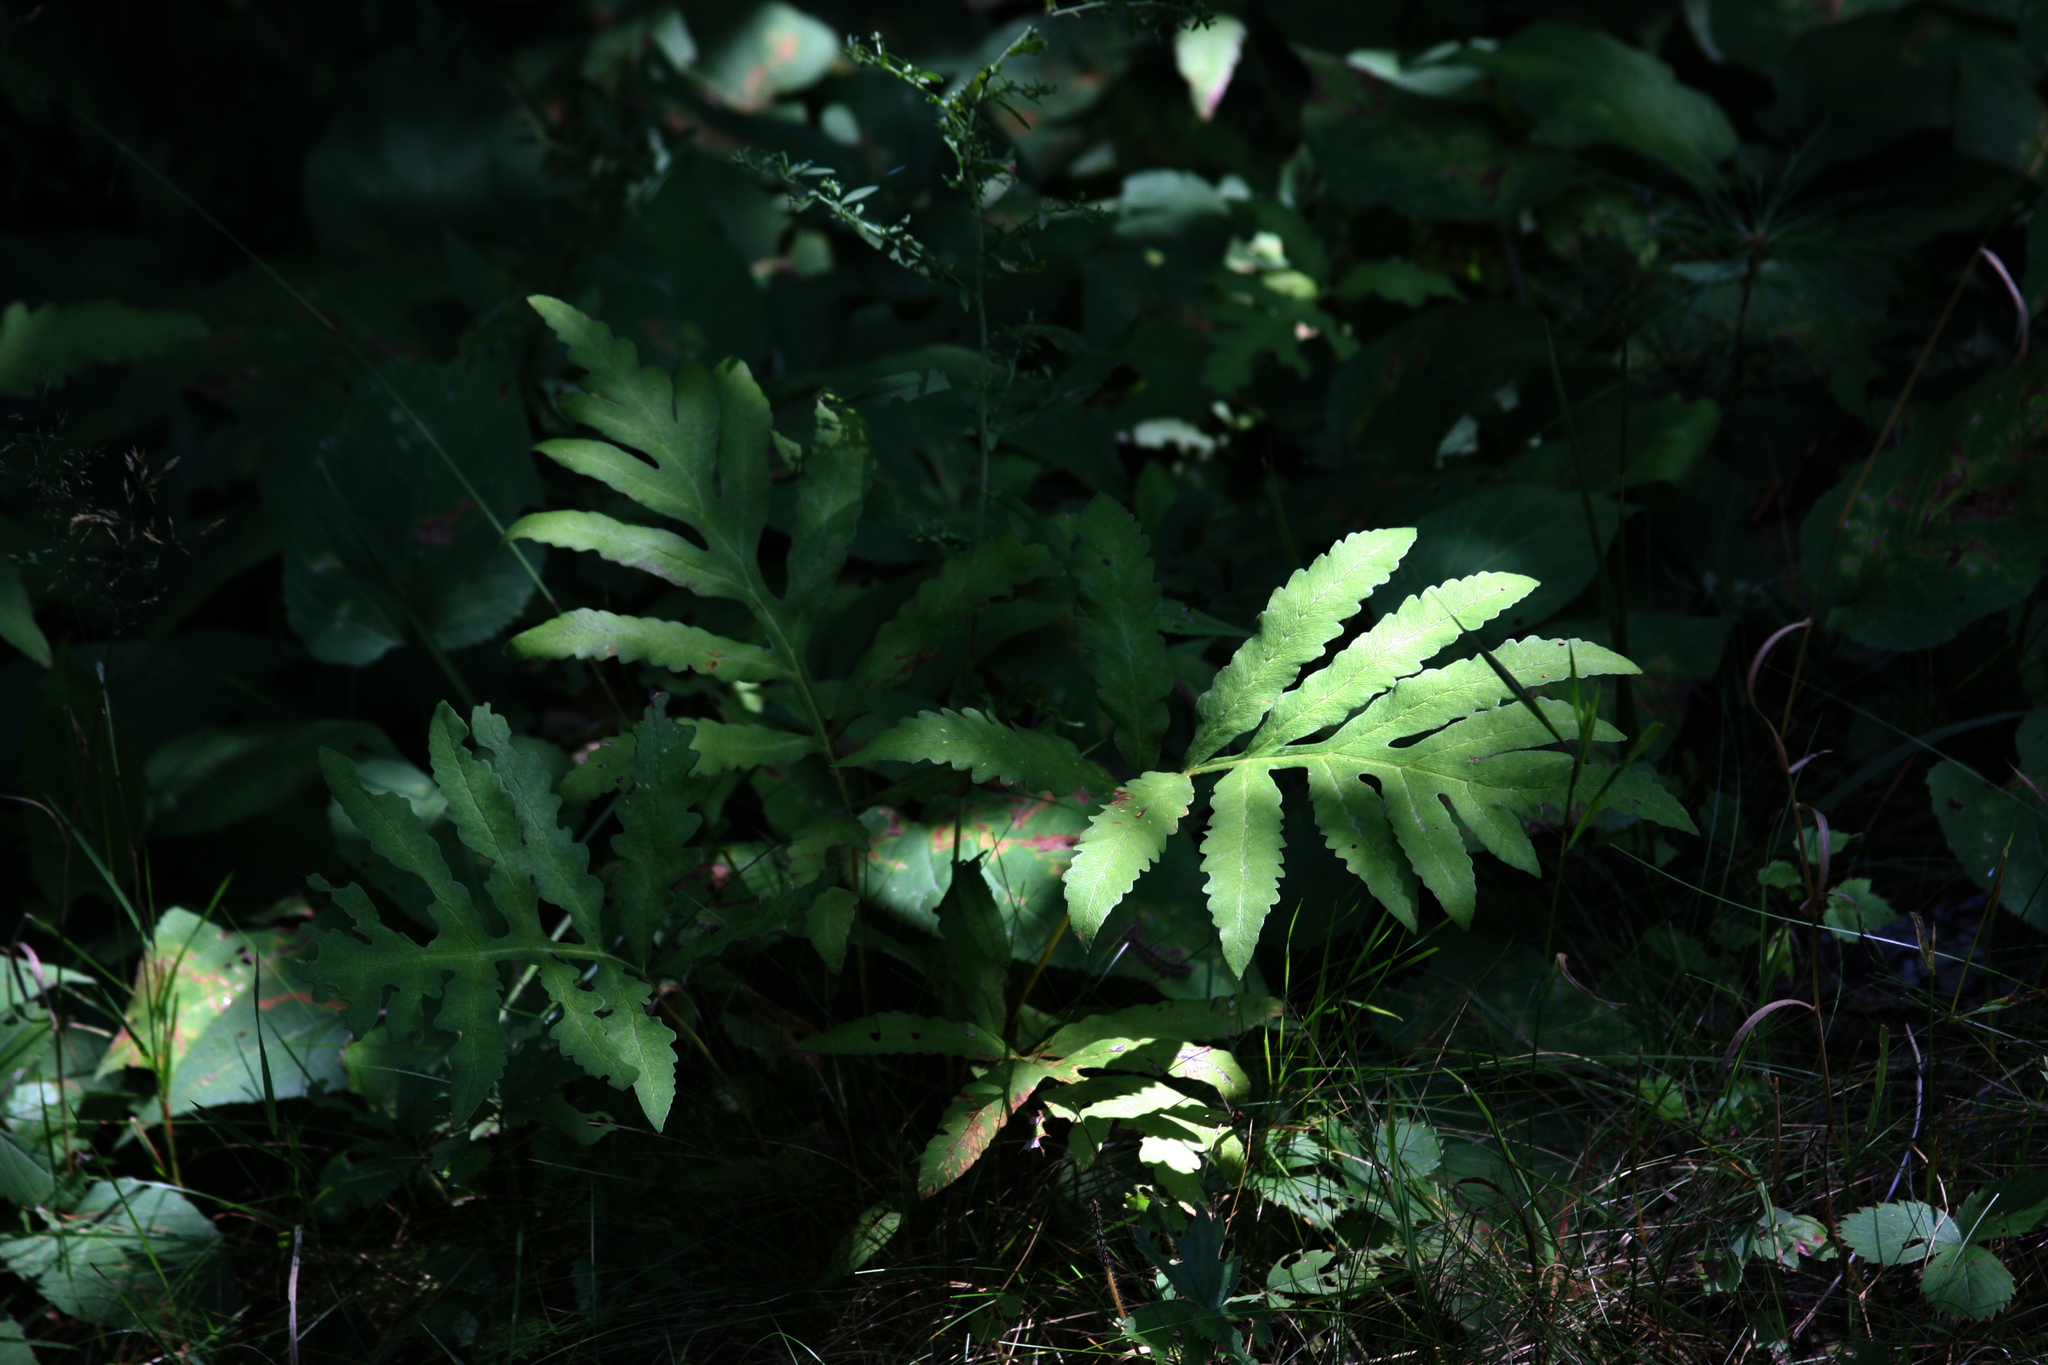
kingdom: Plantae
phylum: Tracheophyta
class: Polypodiopsida
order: Polypodiales
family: Onocleaceae
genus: Onoclea
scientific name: Onoclea sensibilis
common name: Sensitive fern
